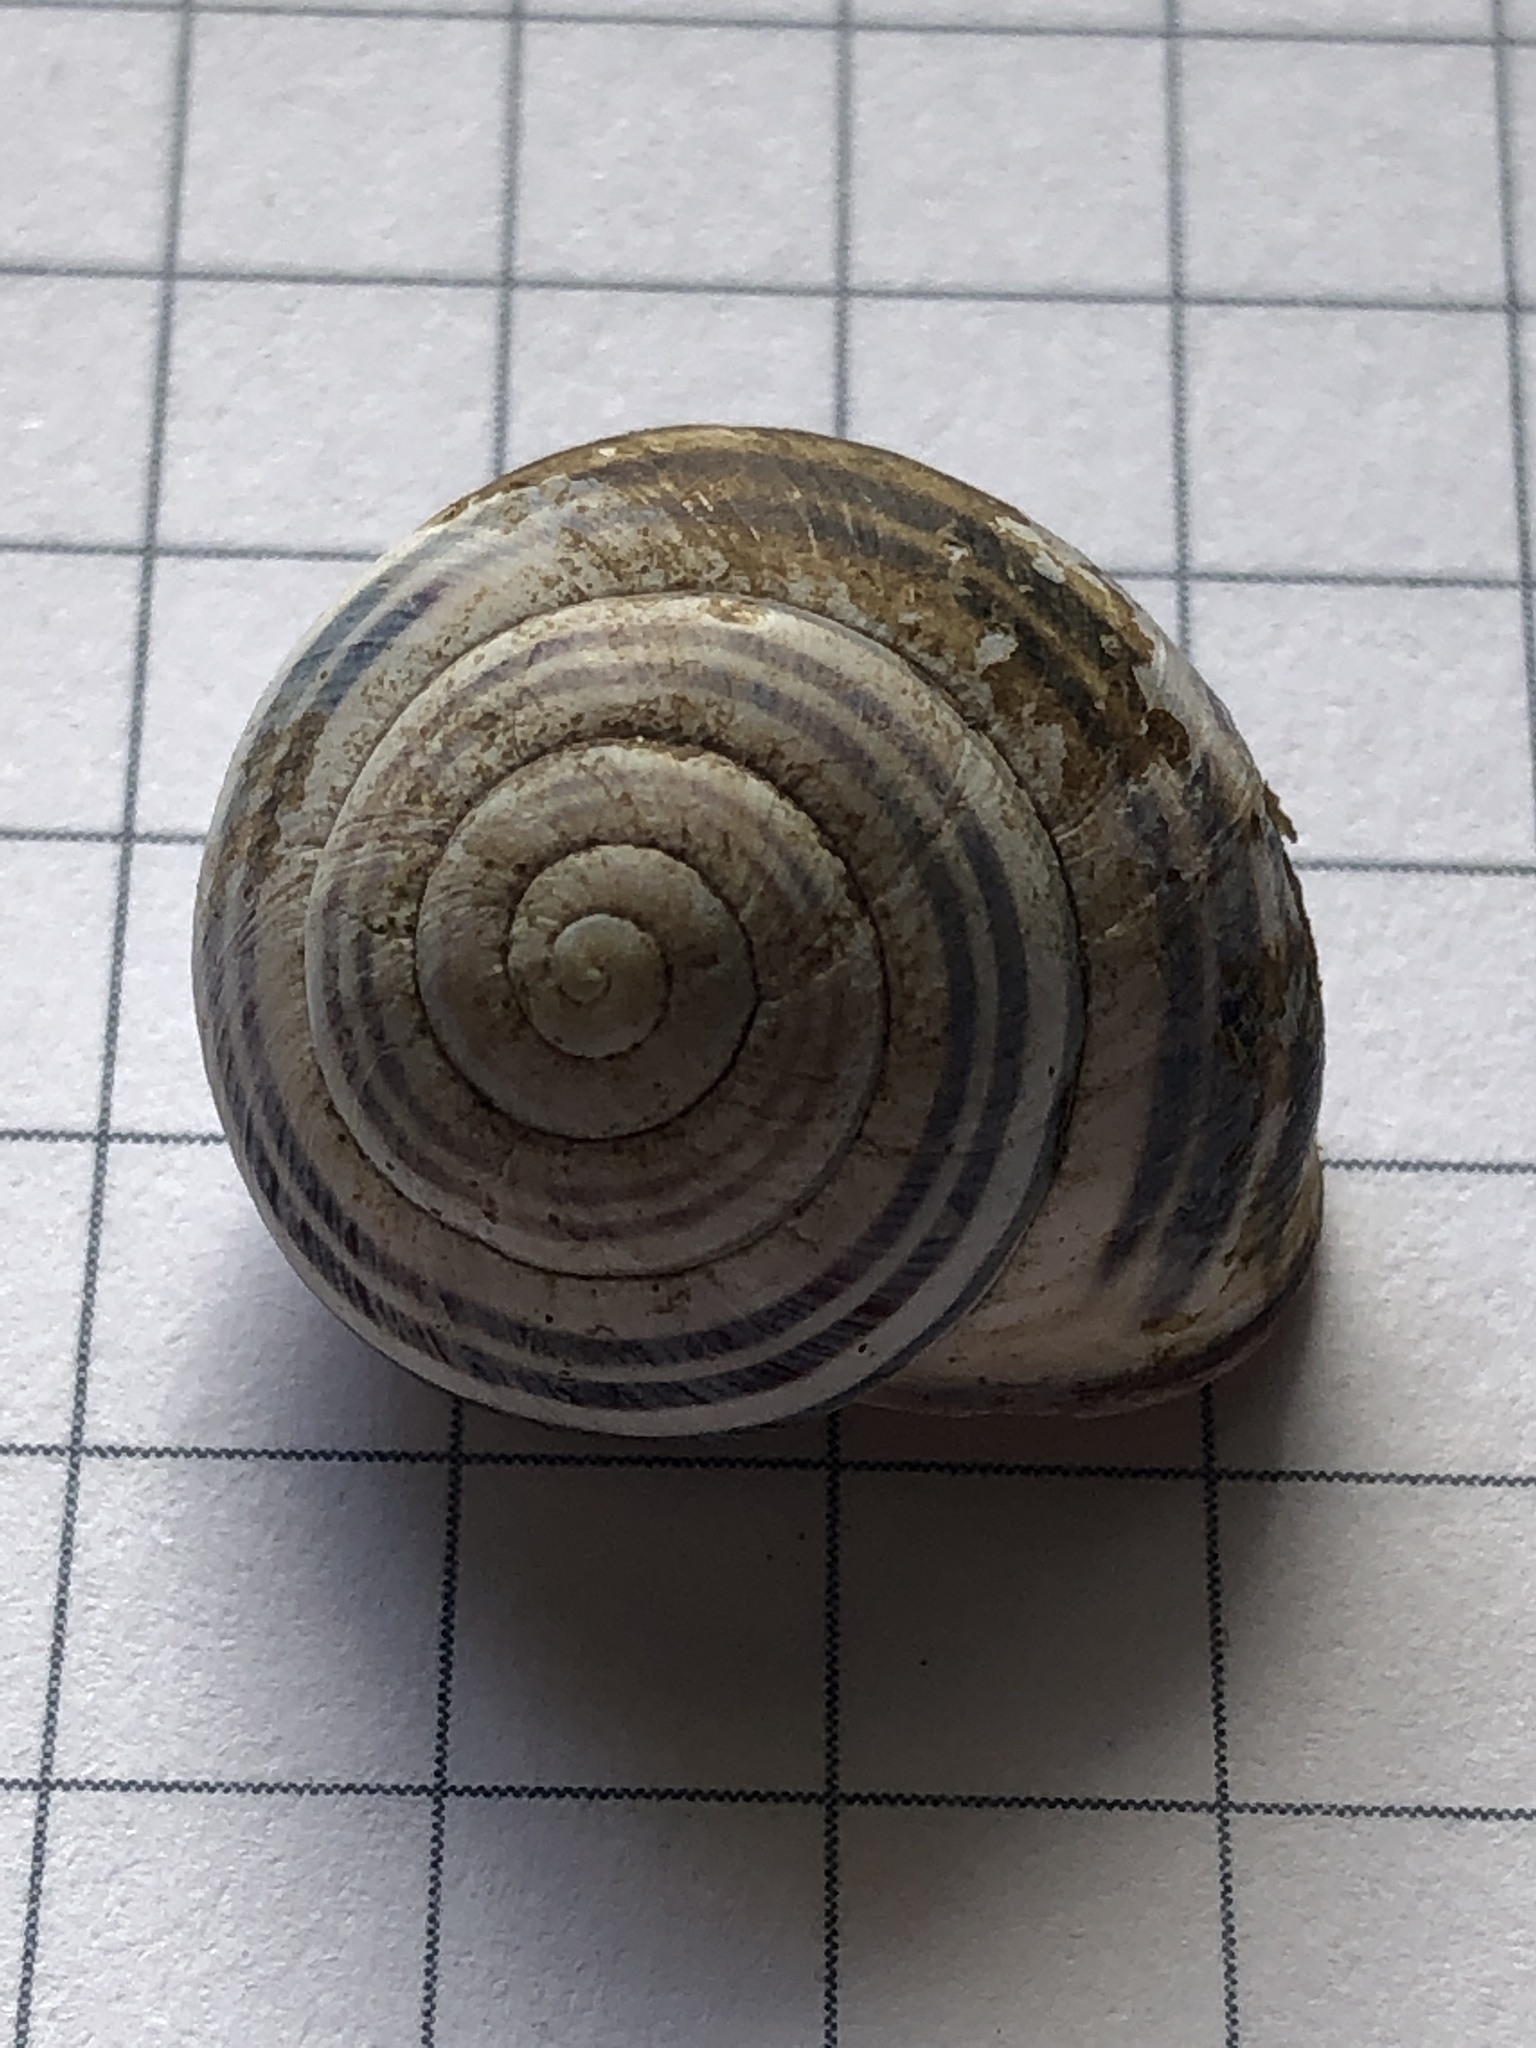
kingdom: Animalia
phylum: Mollusca
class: Gastropoda
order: Stylommatophora
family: Helicidae
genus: Cepaea
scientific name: Cepaea nemoralis
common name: Grovesnail
